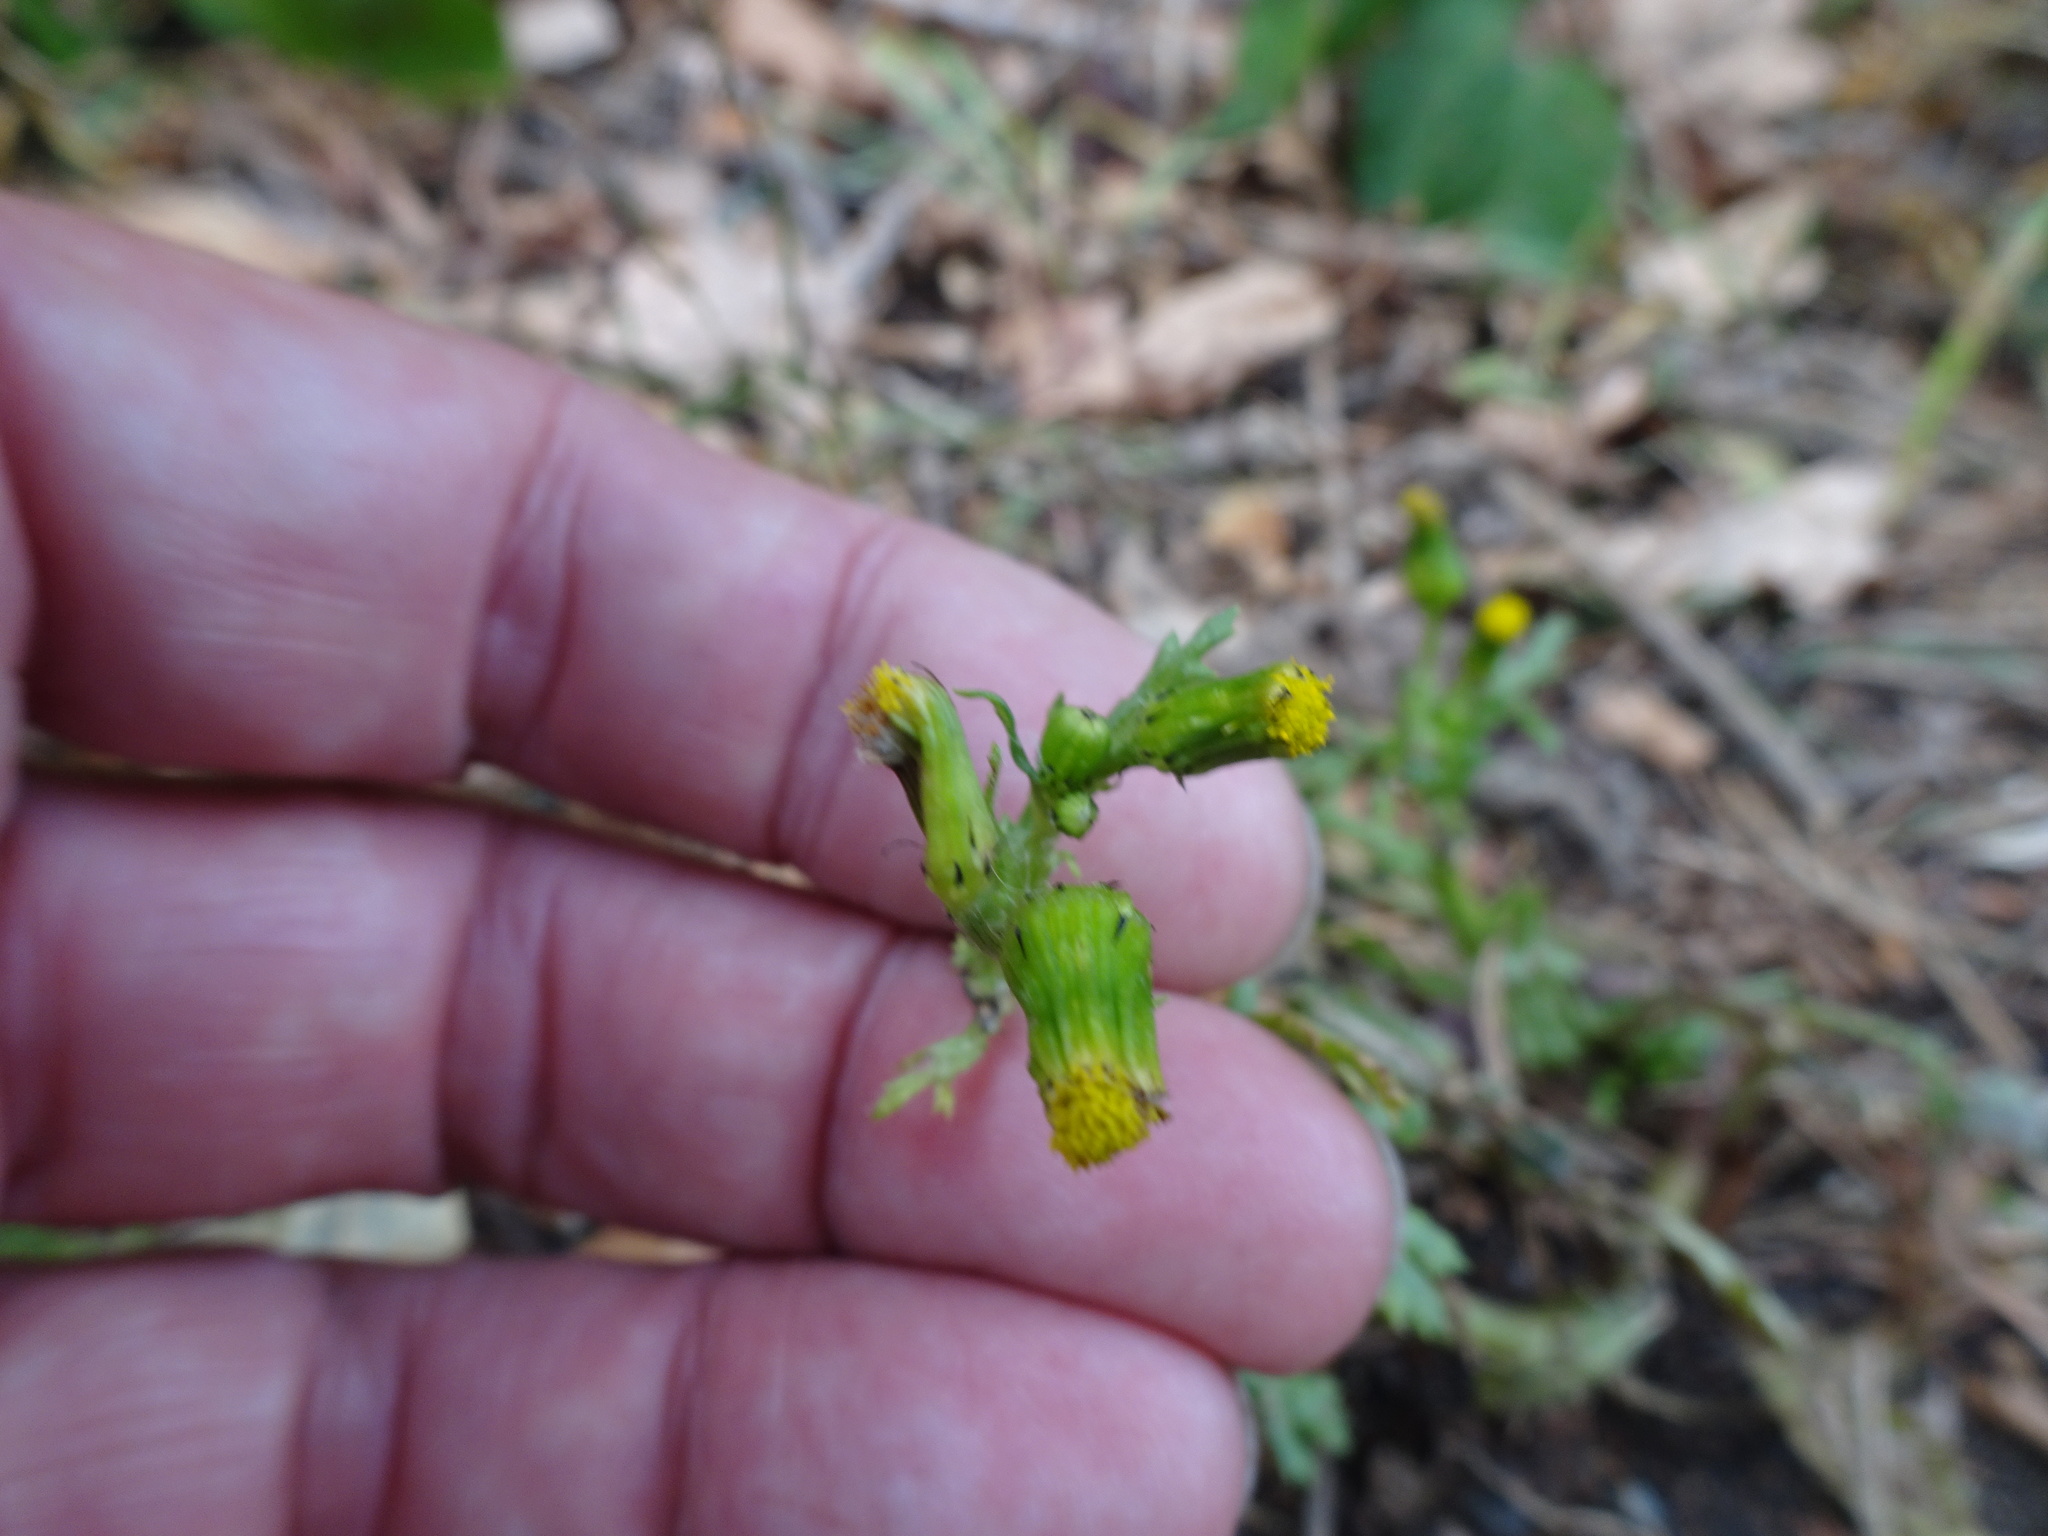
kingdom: Plantae
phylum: Tracheophyta
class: Magnoliopsida
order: Asterales
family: Asteraceae
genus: Senecio
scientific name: Senecio vulgaris
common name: Old-man-in-the-spring
